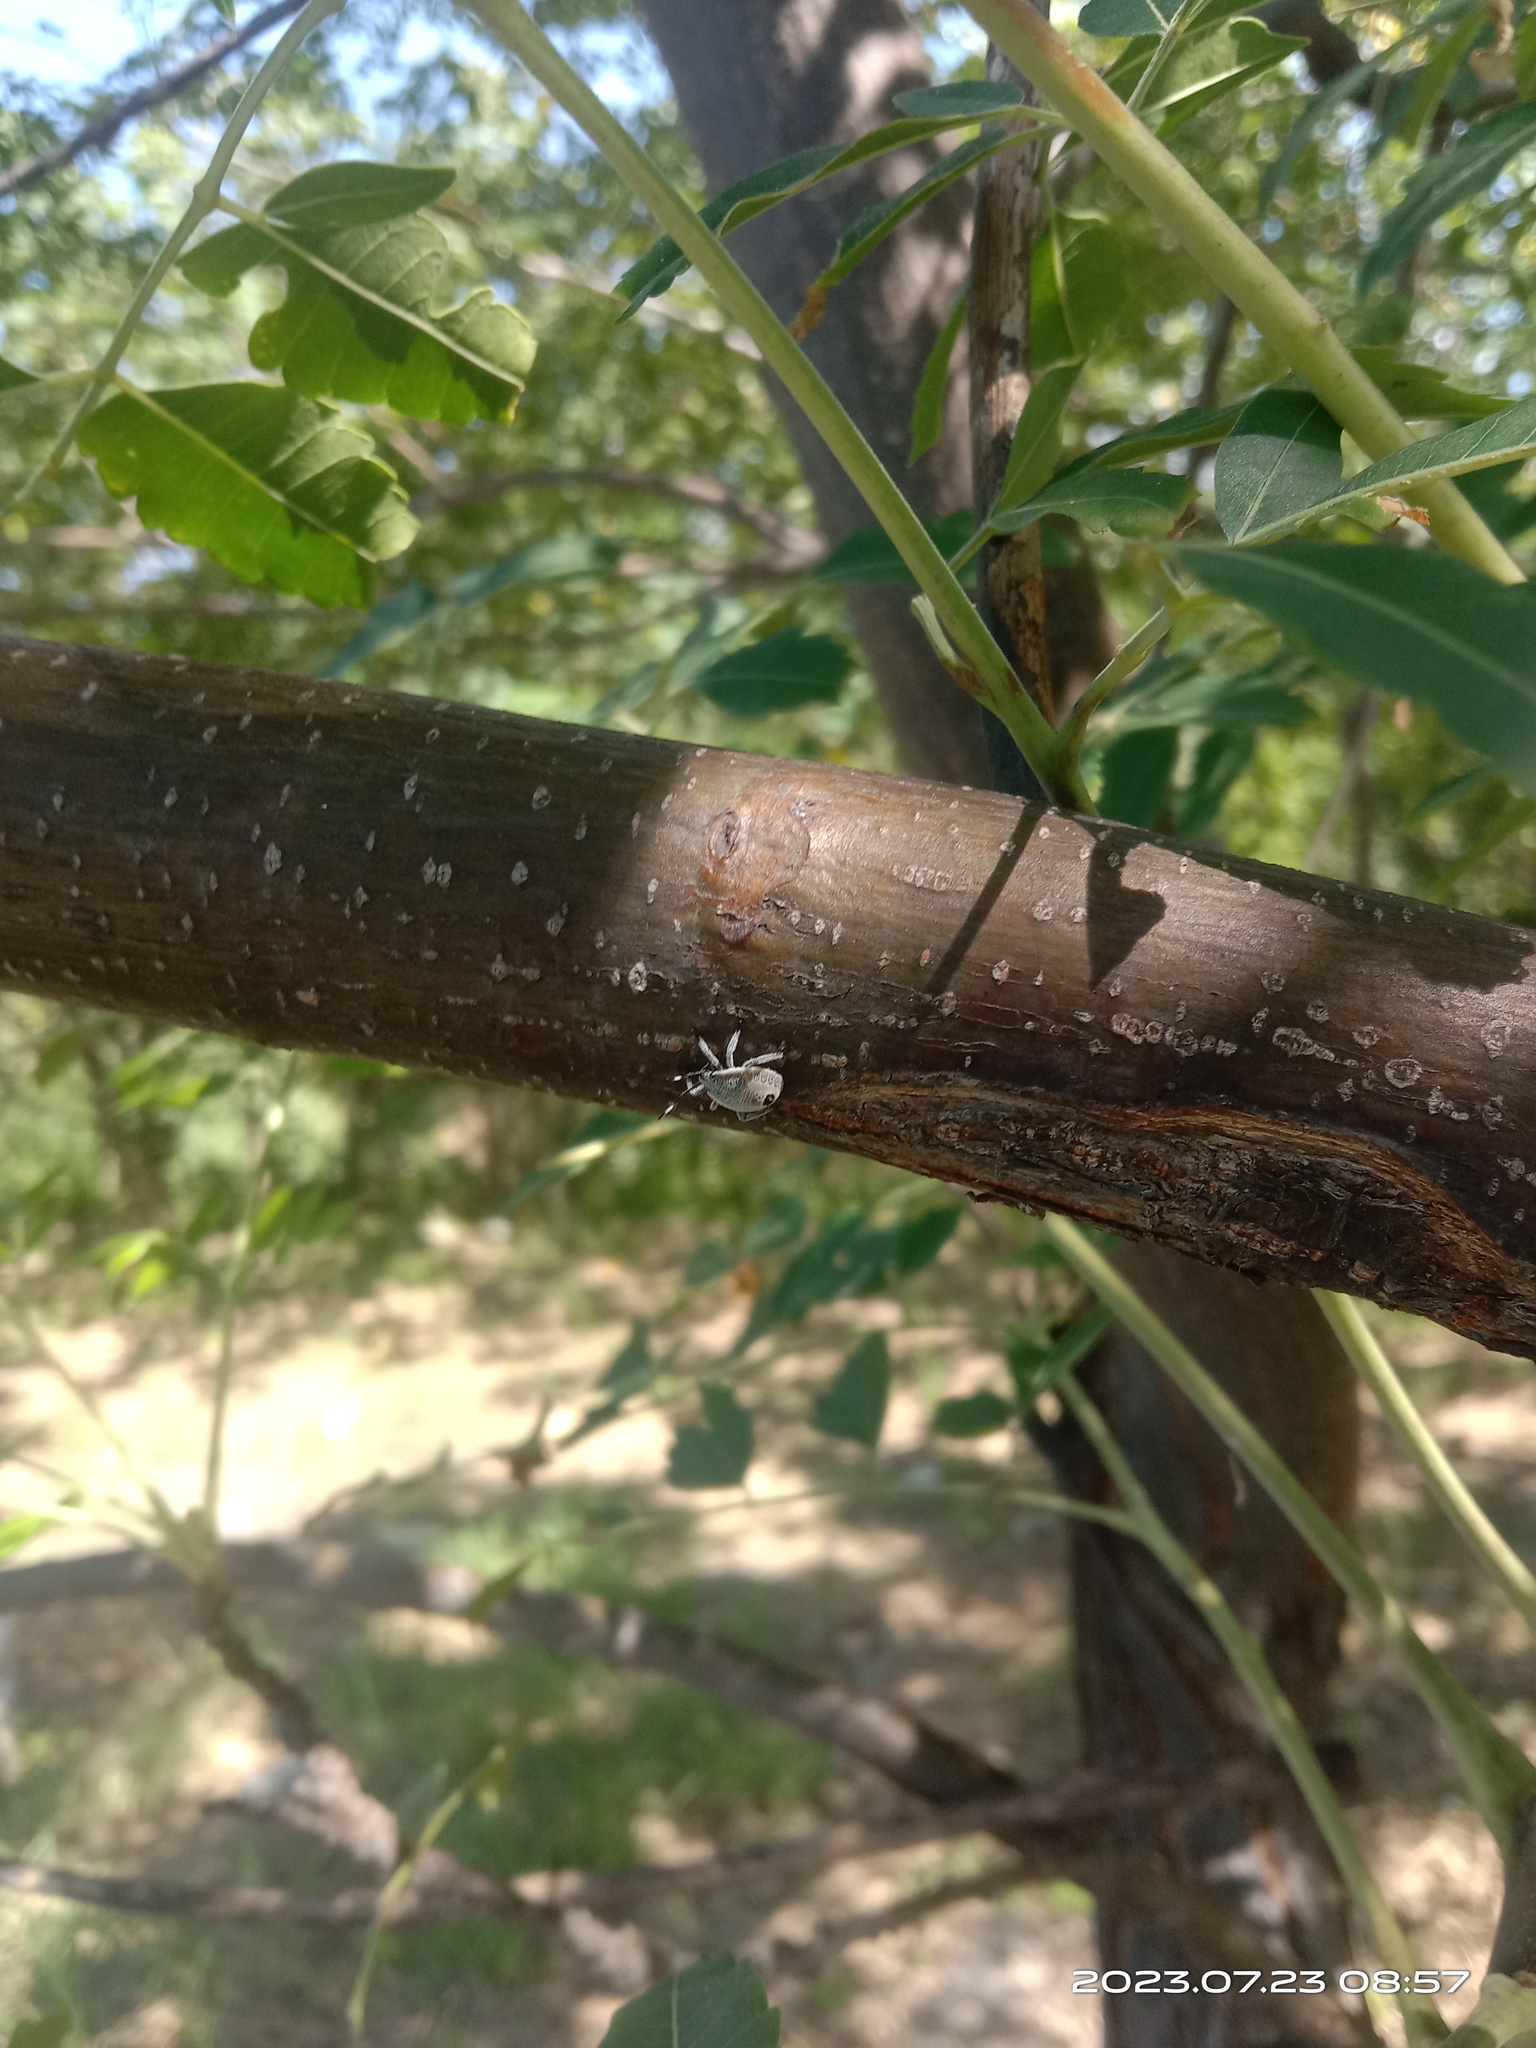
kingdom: Animalia
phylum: Arthropoda
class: Insecta
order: Hemiptera
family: Pentatomidae
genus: Erthesina
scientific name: Erthesina fullo
